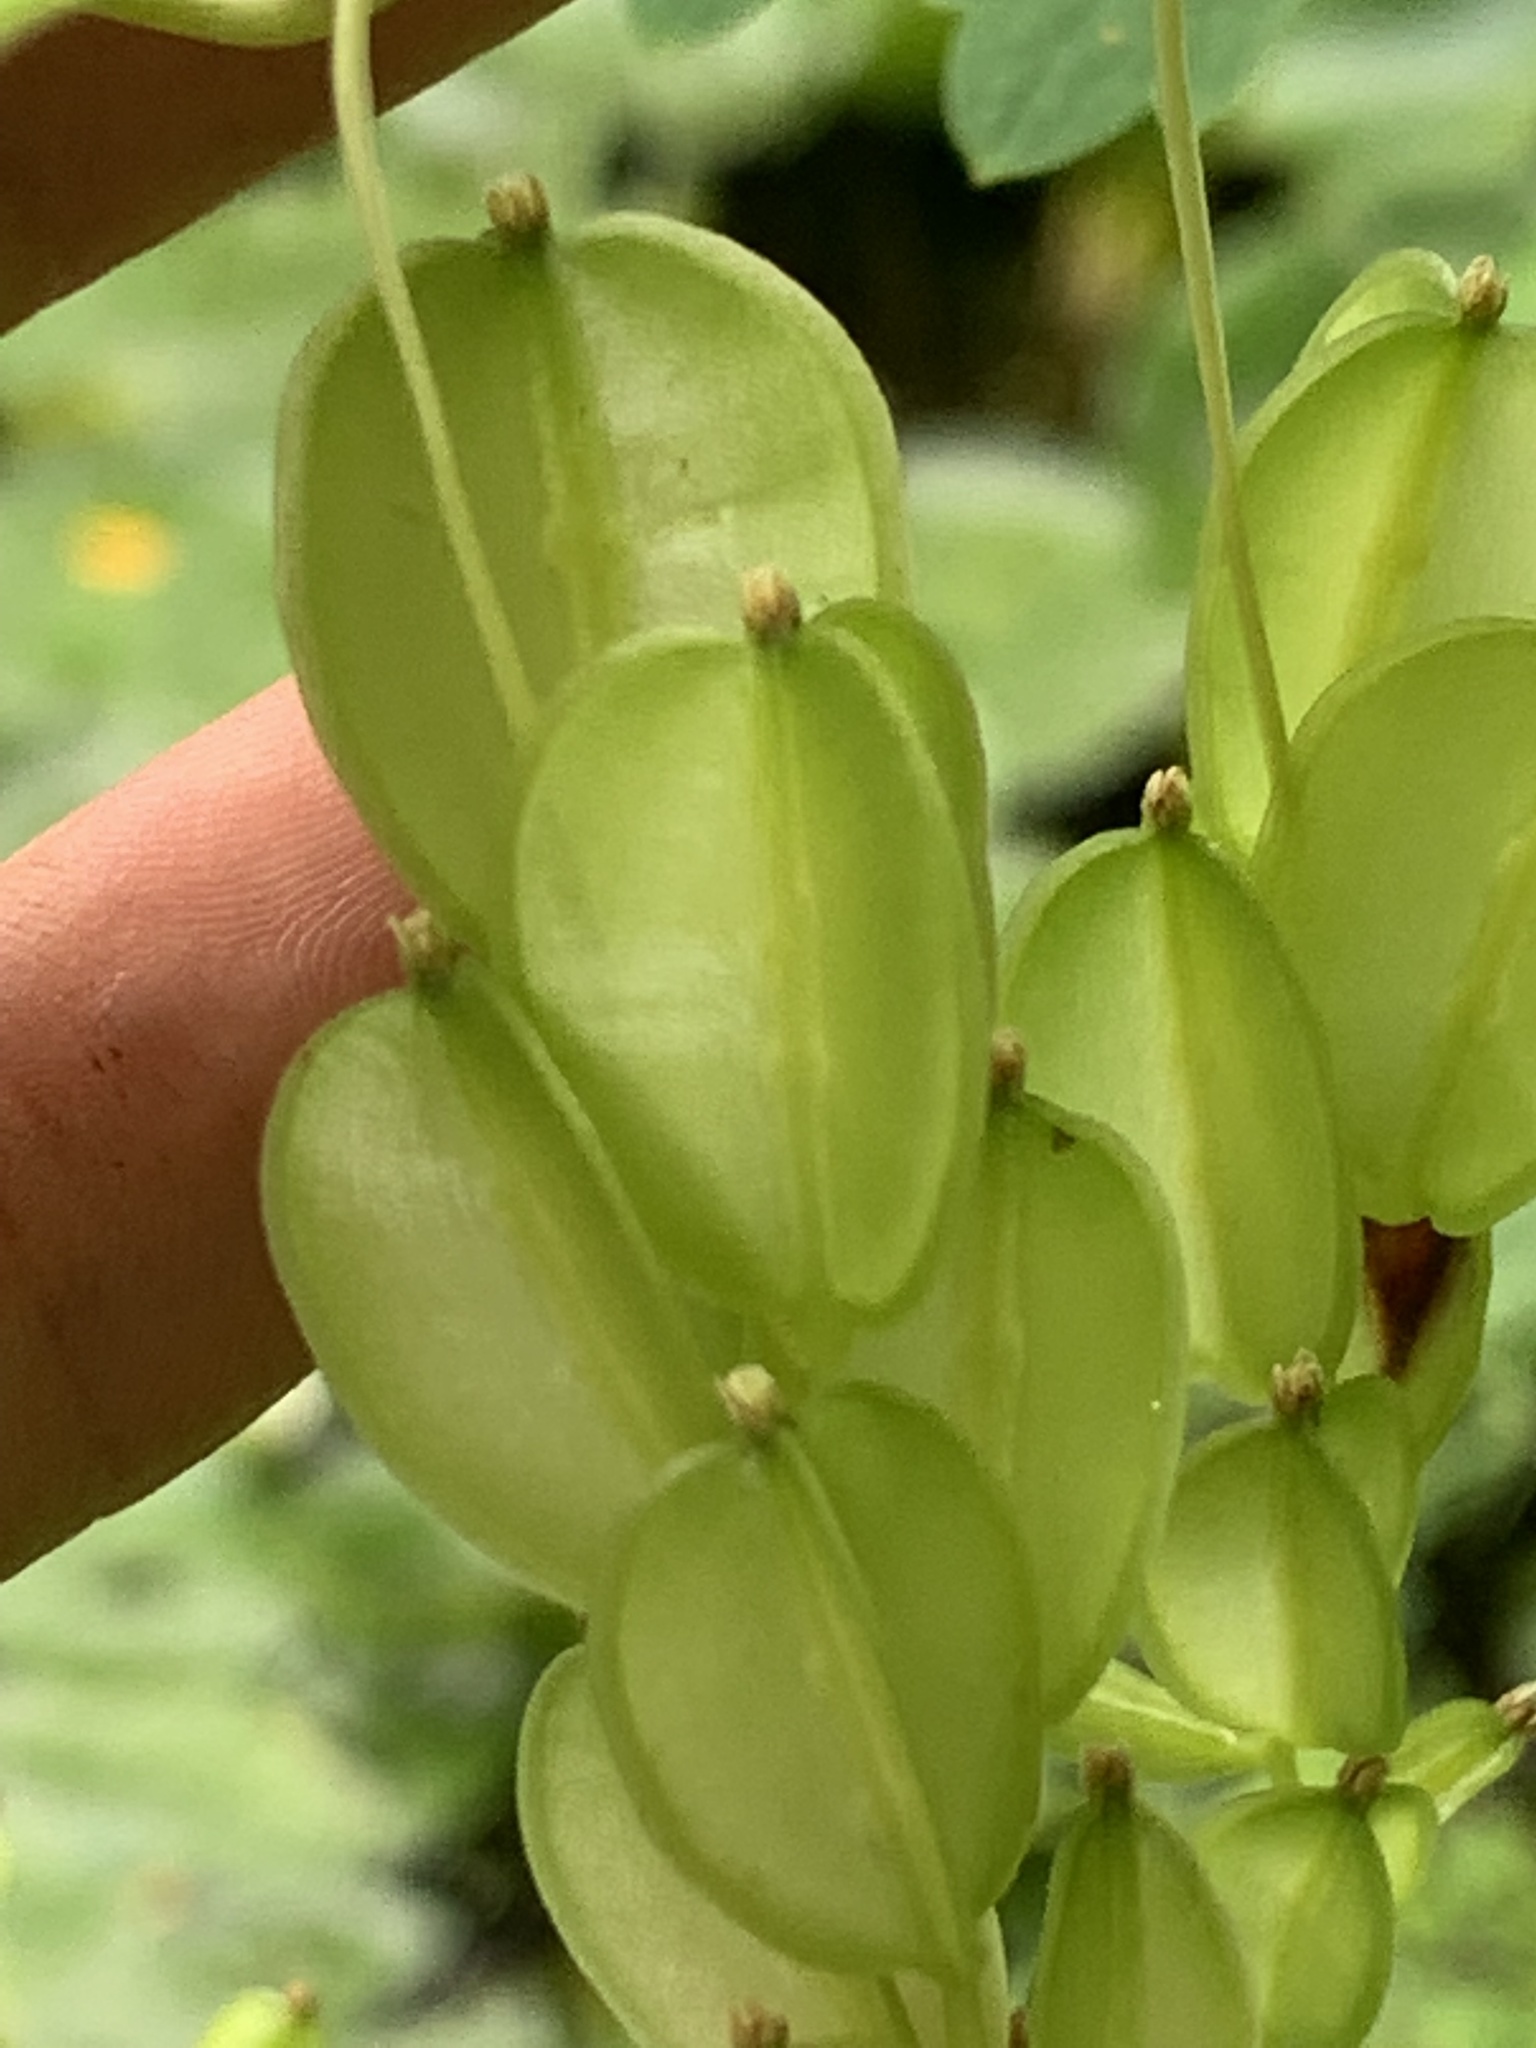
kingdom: Plantae
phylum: Tracheophyta
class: Liliopsida
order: Dioscoreales
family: Dioscoreaceae
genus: Dioscorea
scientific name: Dioscorea villosa
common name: Wild yam
